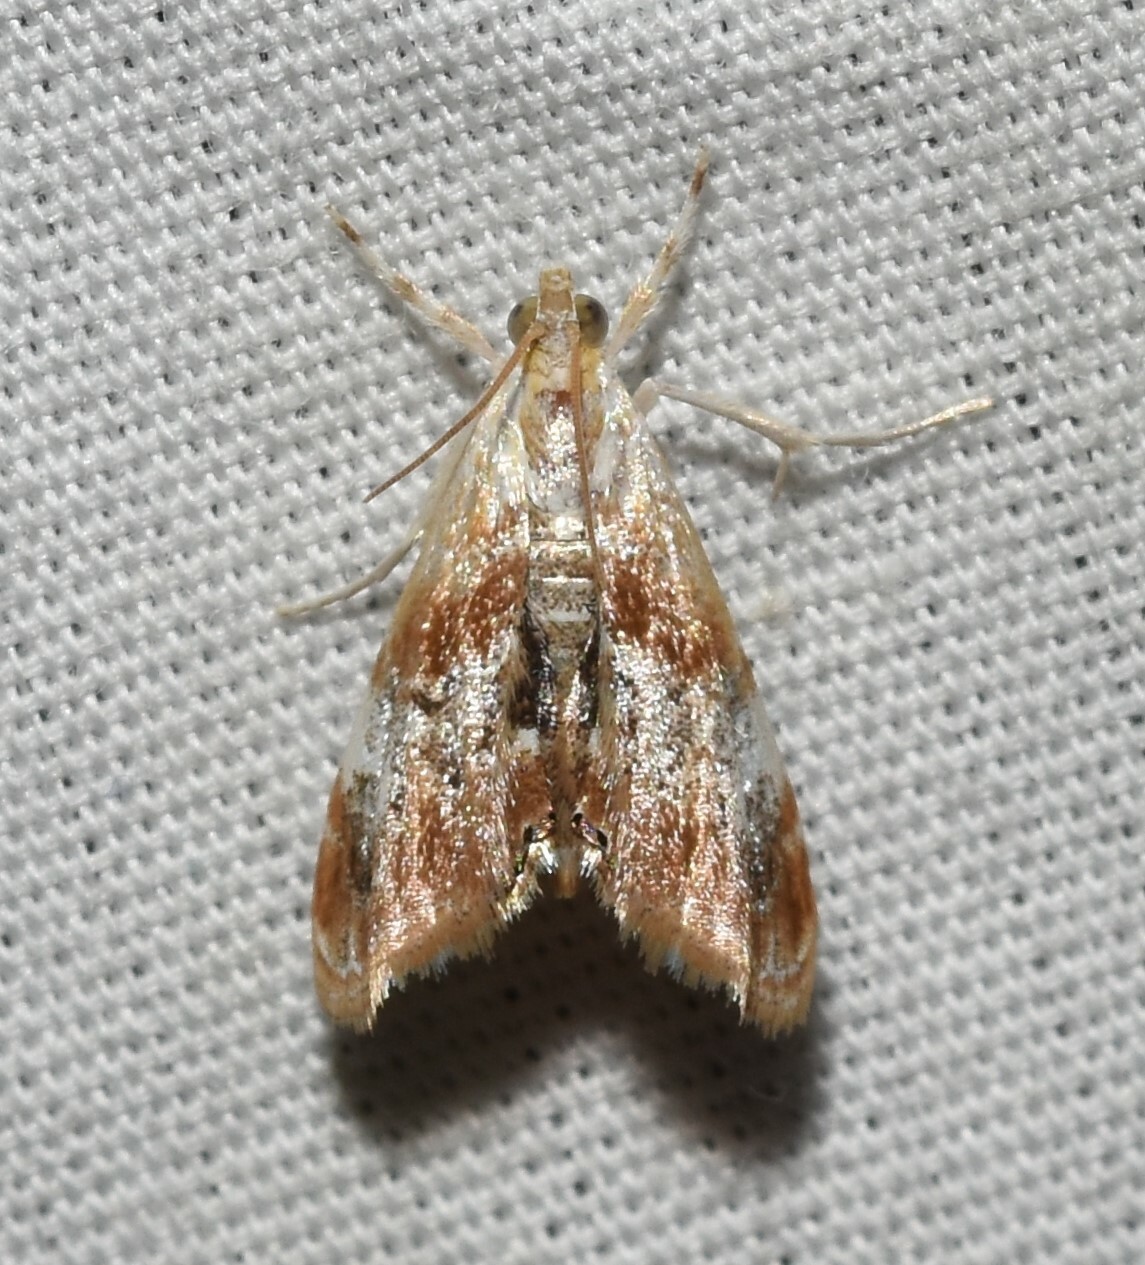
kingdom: Animalia
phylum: Arthropoda
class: Insecta
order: Lepidoptera
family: Crambidae
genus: Dicymolomia
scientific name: Dicymolomia julianalis
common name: Julia's dicymolomia moth
